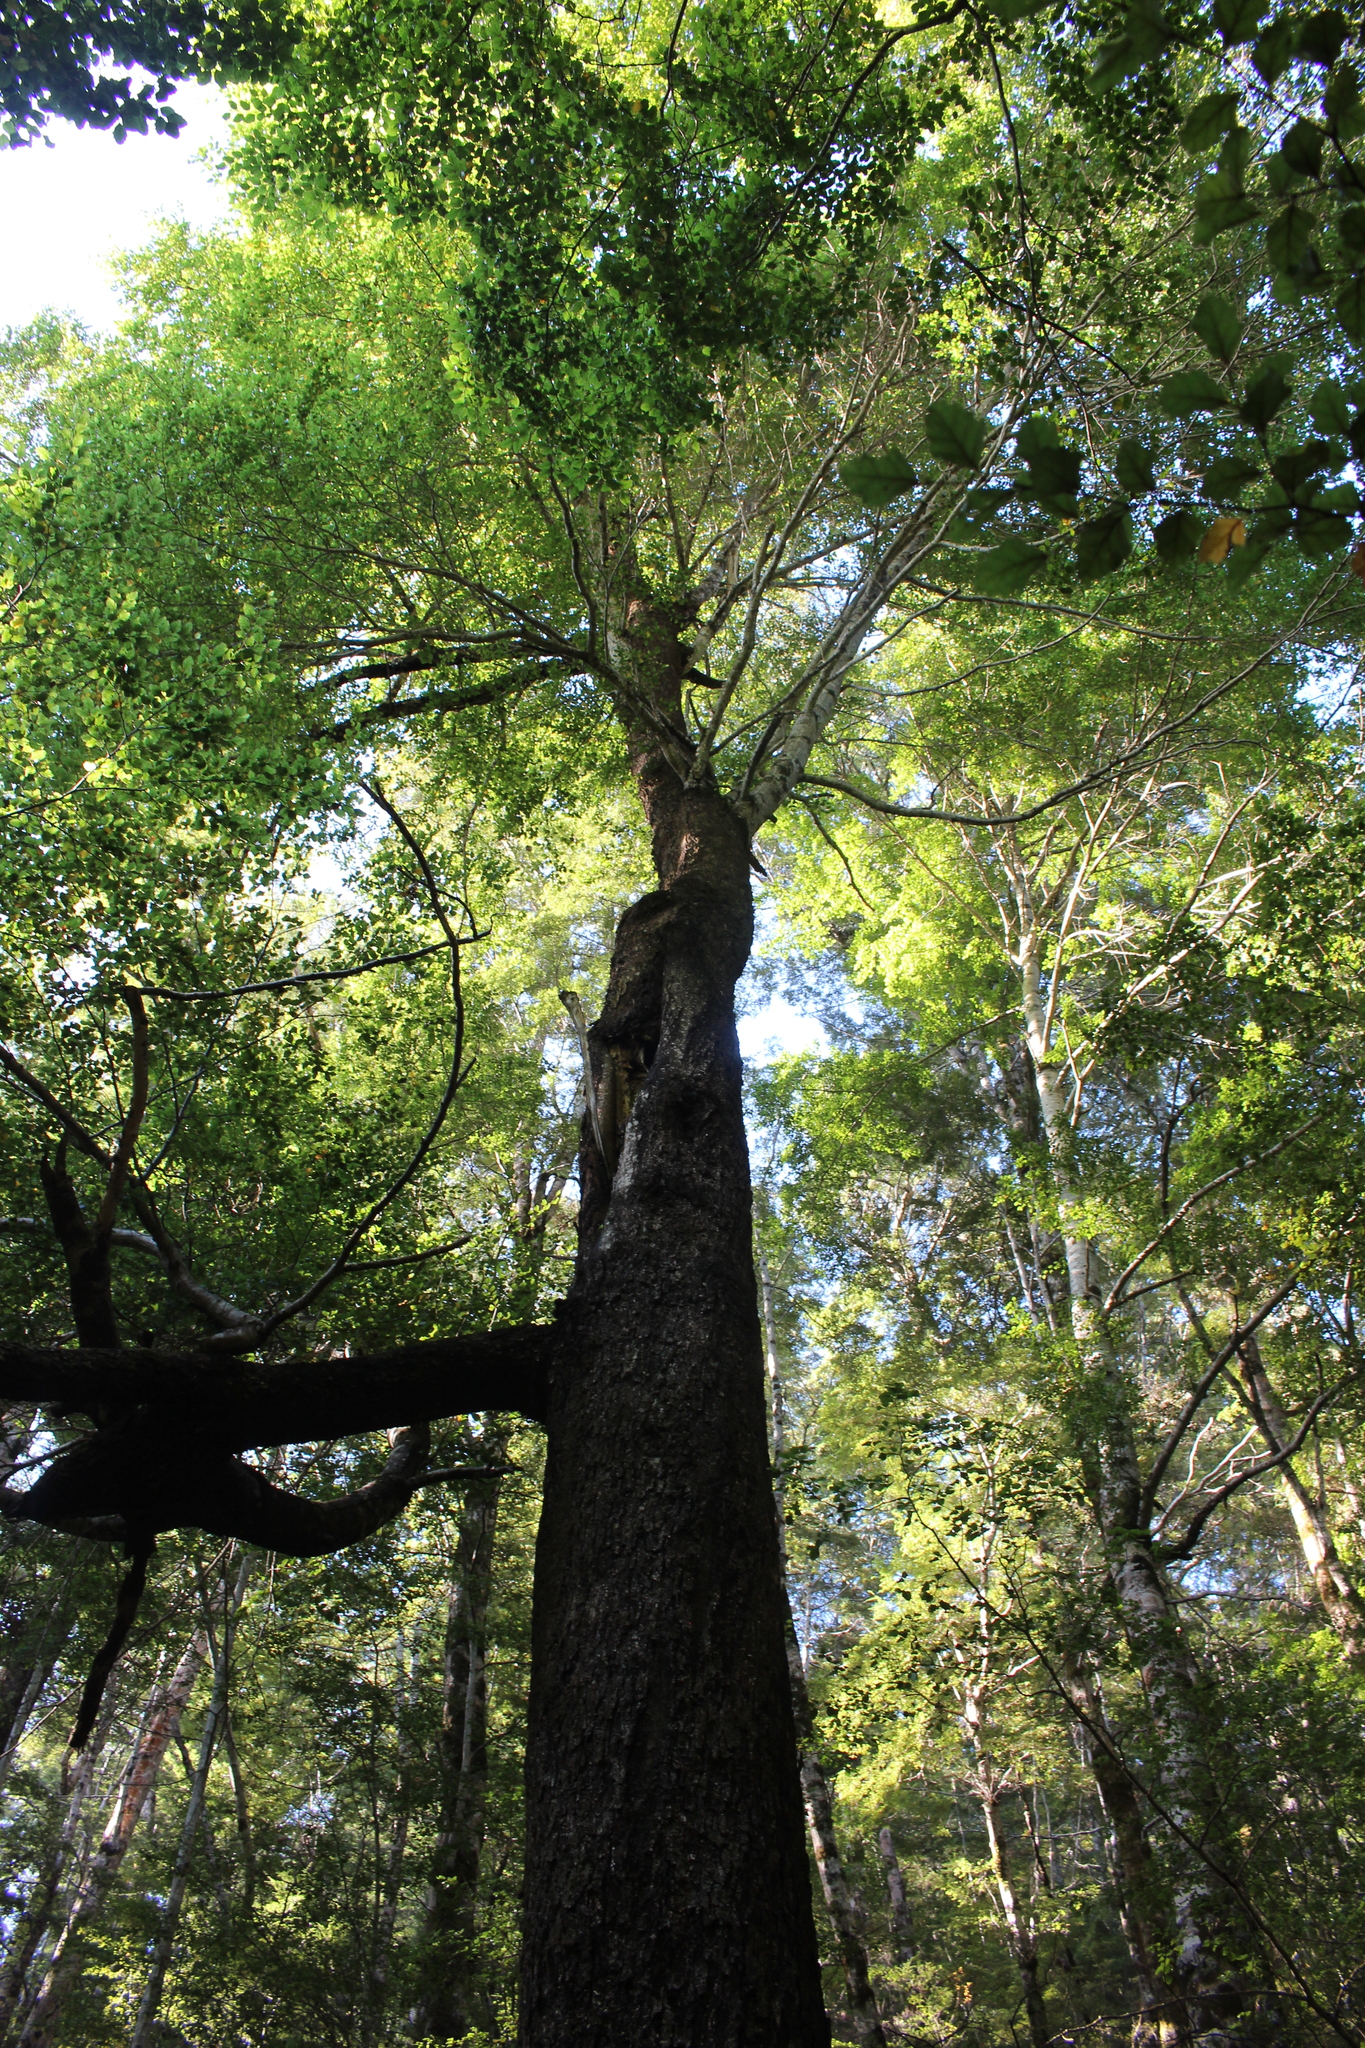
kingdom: Plantae
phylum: Tracheophyta
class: Magnoliopsida
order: Fagales
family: Nothofagaceae
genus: Nothofagus
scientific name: Nothofagus fusca
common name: Red beech
